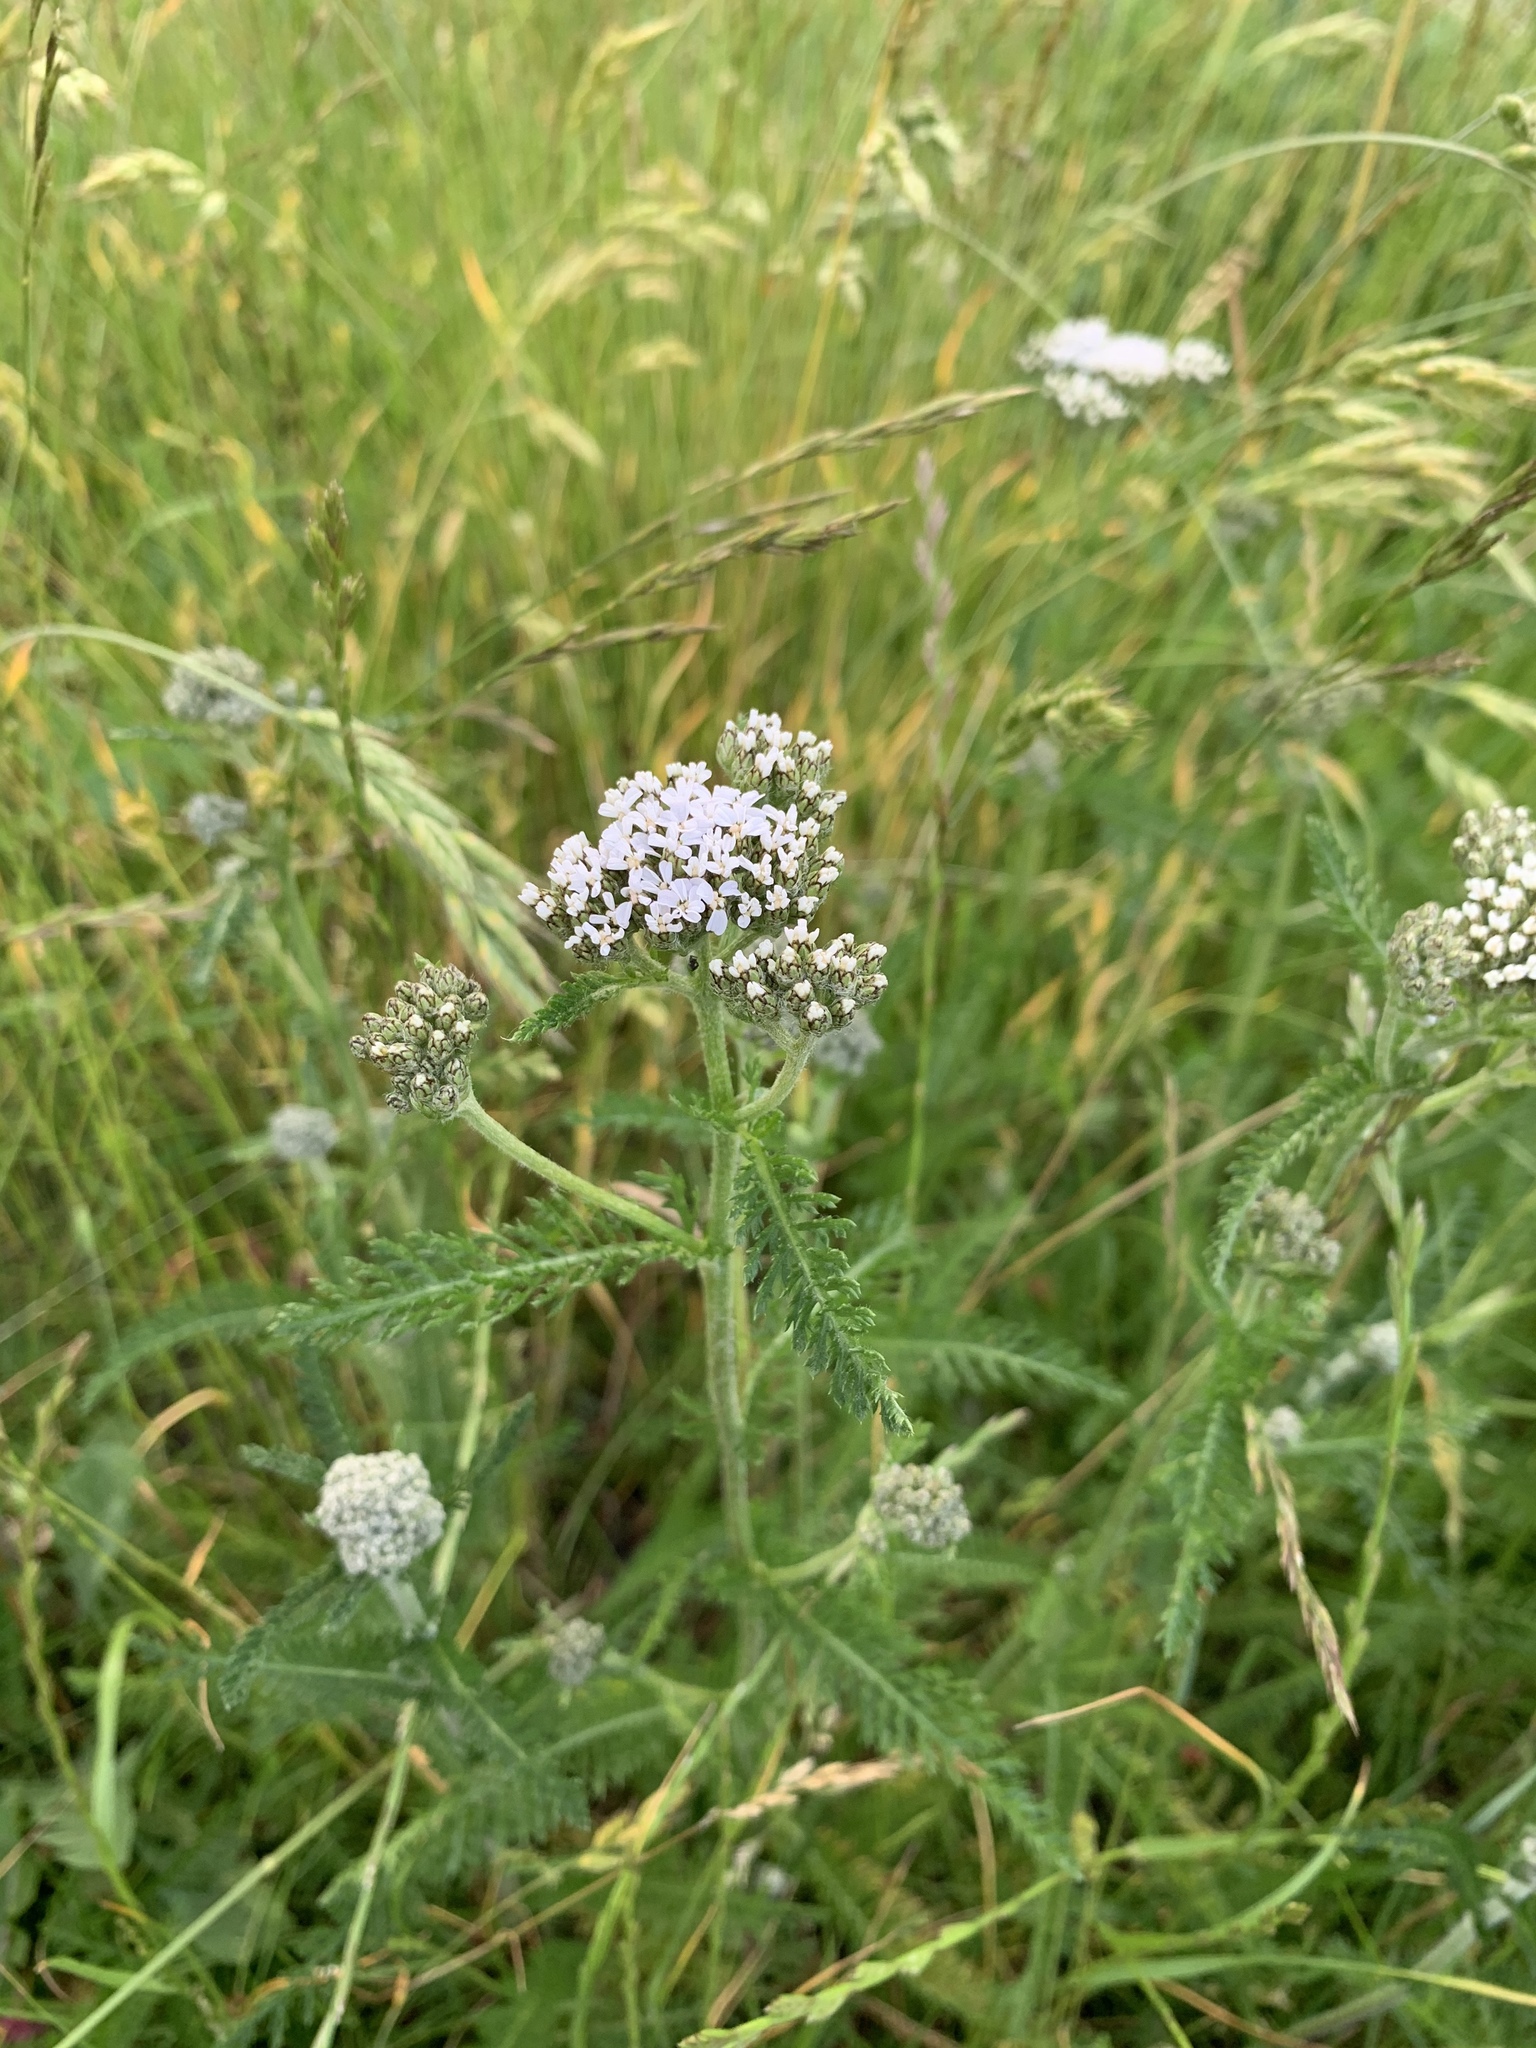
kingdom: Plantae
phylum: Tracheophyta
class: Magnoliopsida
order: Asterales
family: Asteraceae
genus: Achillea
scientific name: Achillea millefolium
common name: Yarrow
